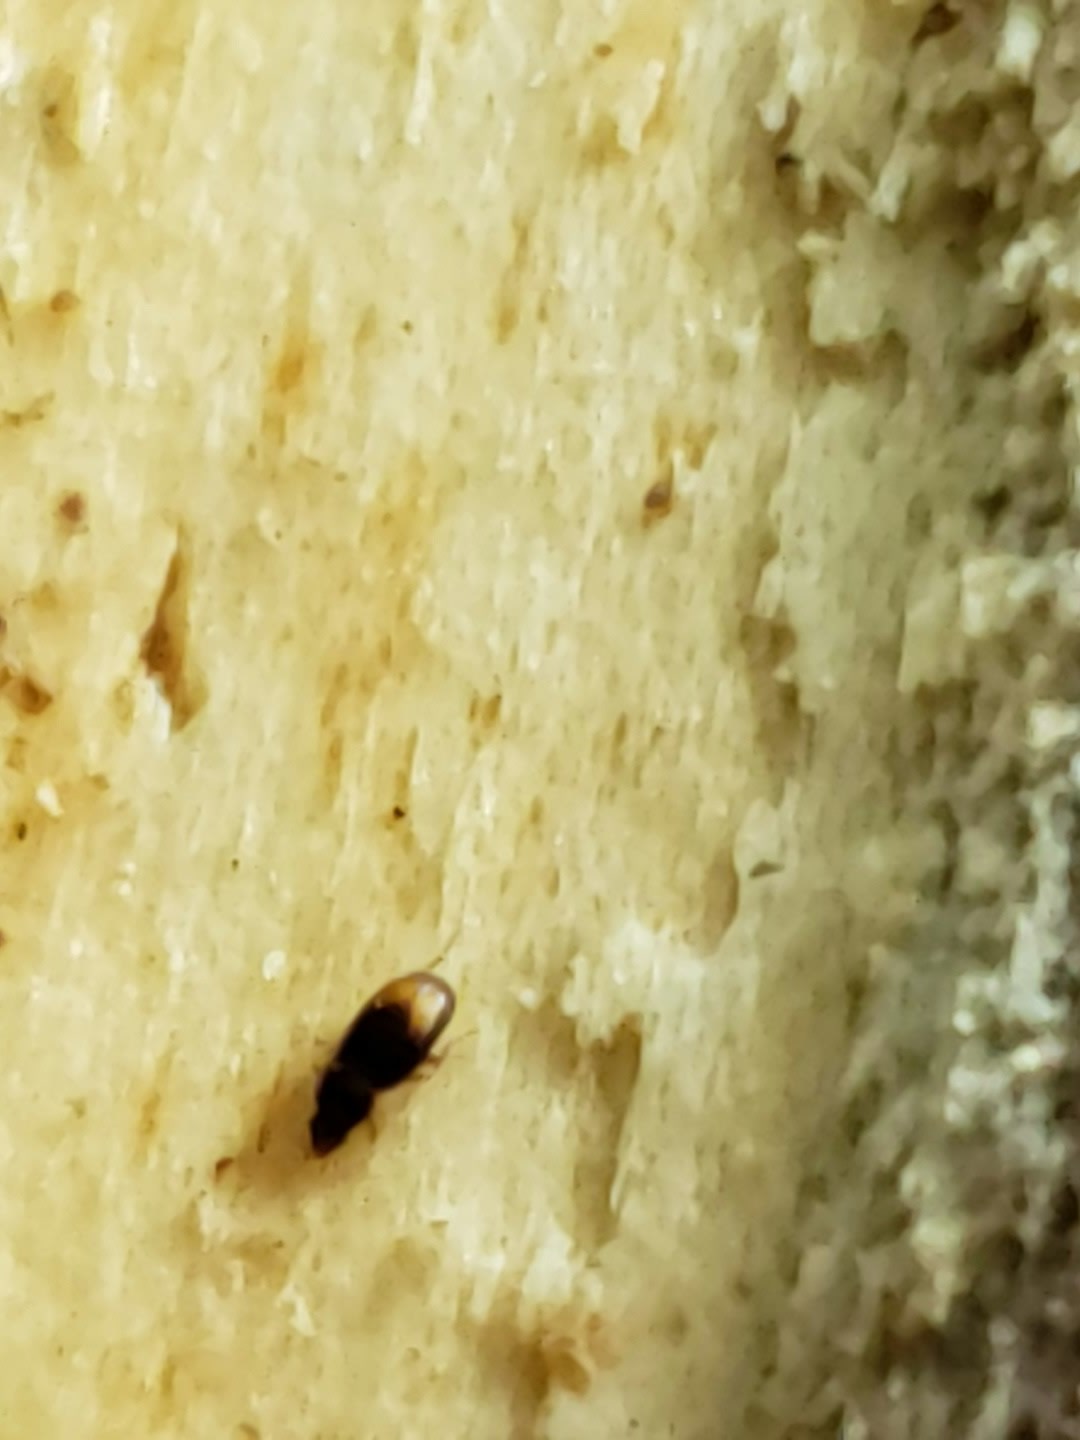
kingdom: Animalia
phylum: Arthropoda
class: Insecta
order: Coleoptera
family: Carabidae
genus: Mioptachys
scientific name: Mioptachys flavicauda
